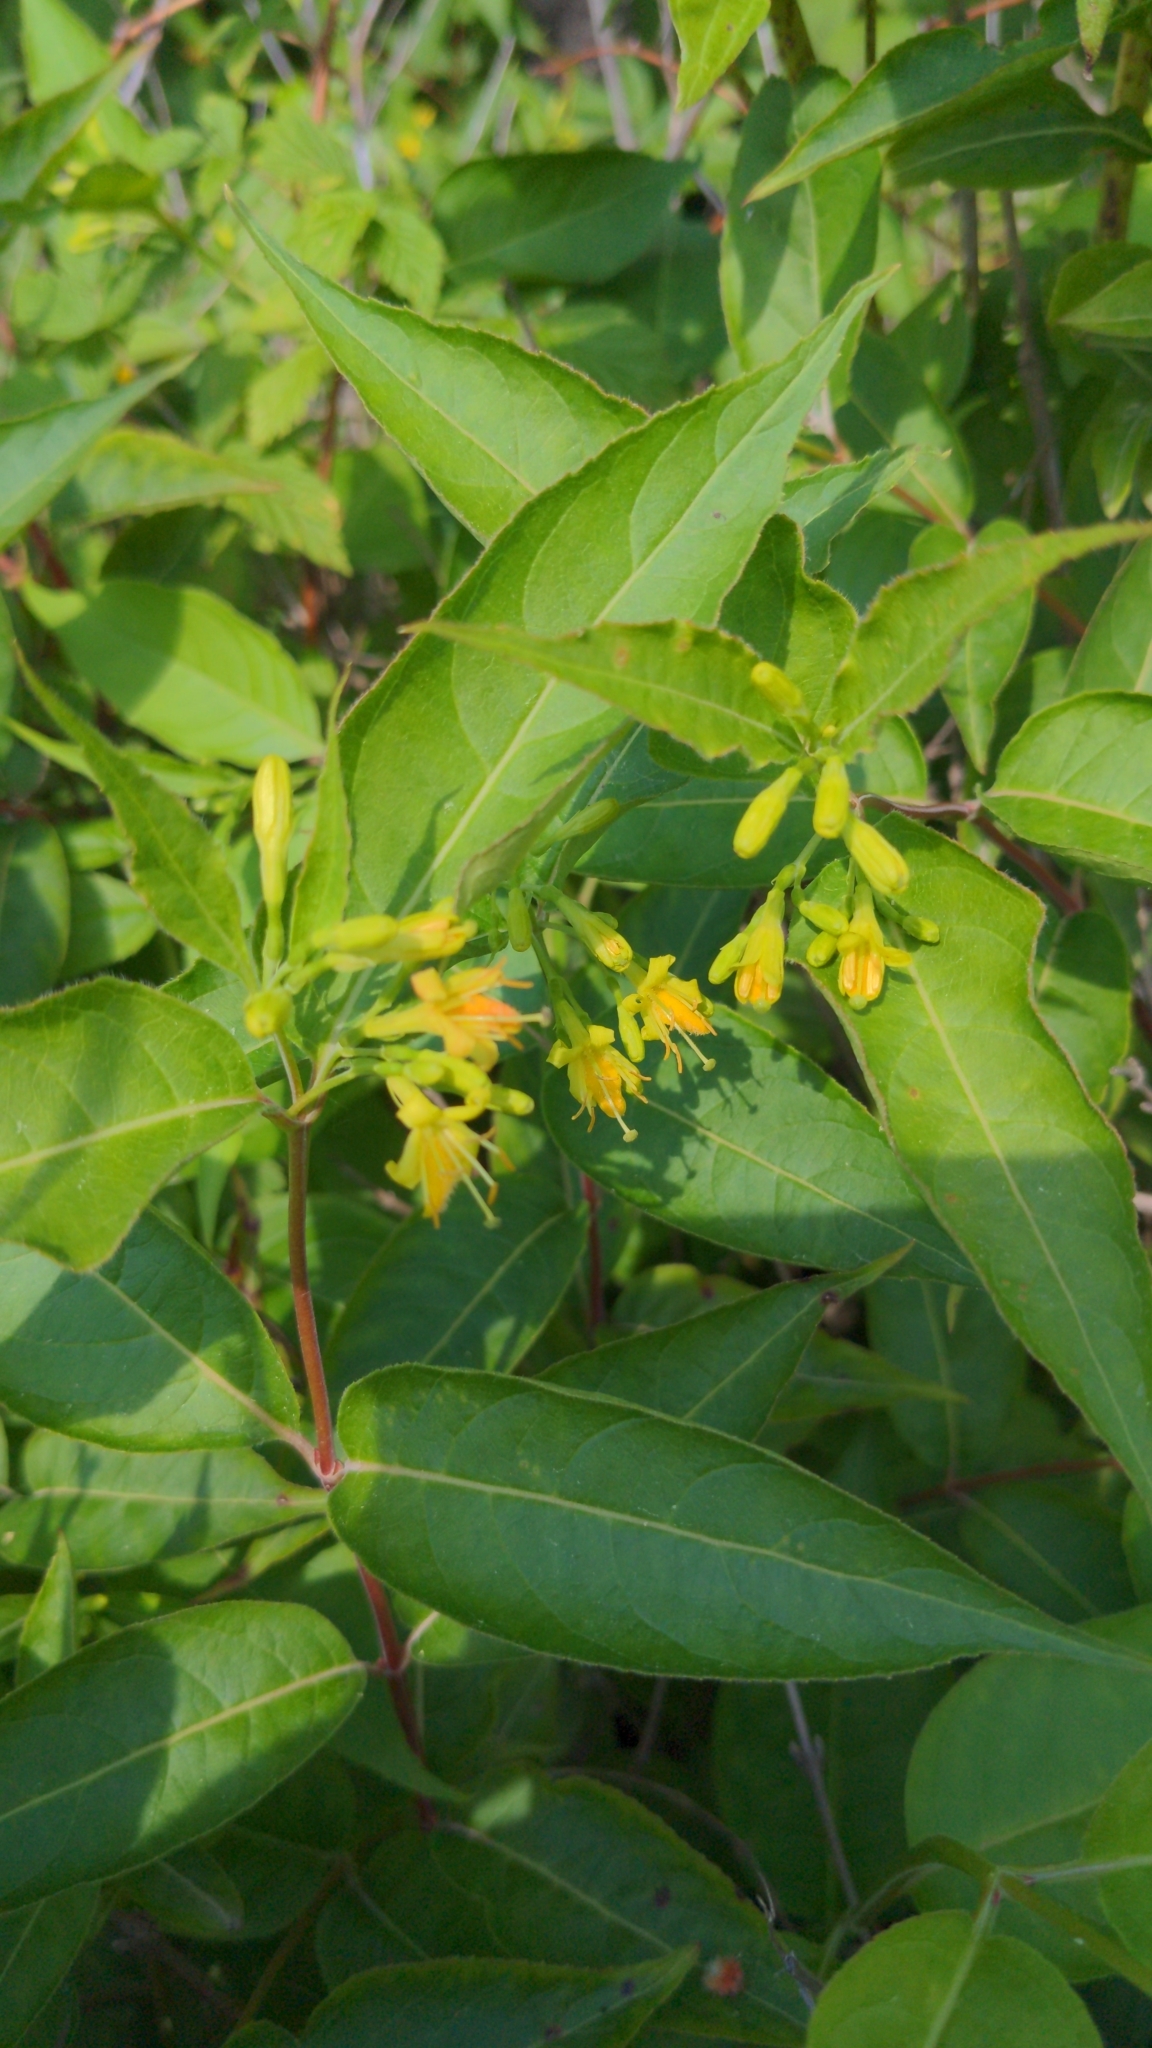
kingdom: Plantae
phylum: Tracheophyta
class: Magnoliopsida
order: Dipsacales
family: Caprifoliaceae
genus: Diervilla
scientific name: Diervilla lonicera
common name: Bush-honeysuckle
